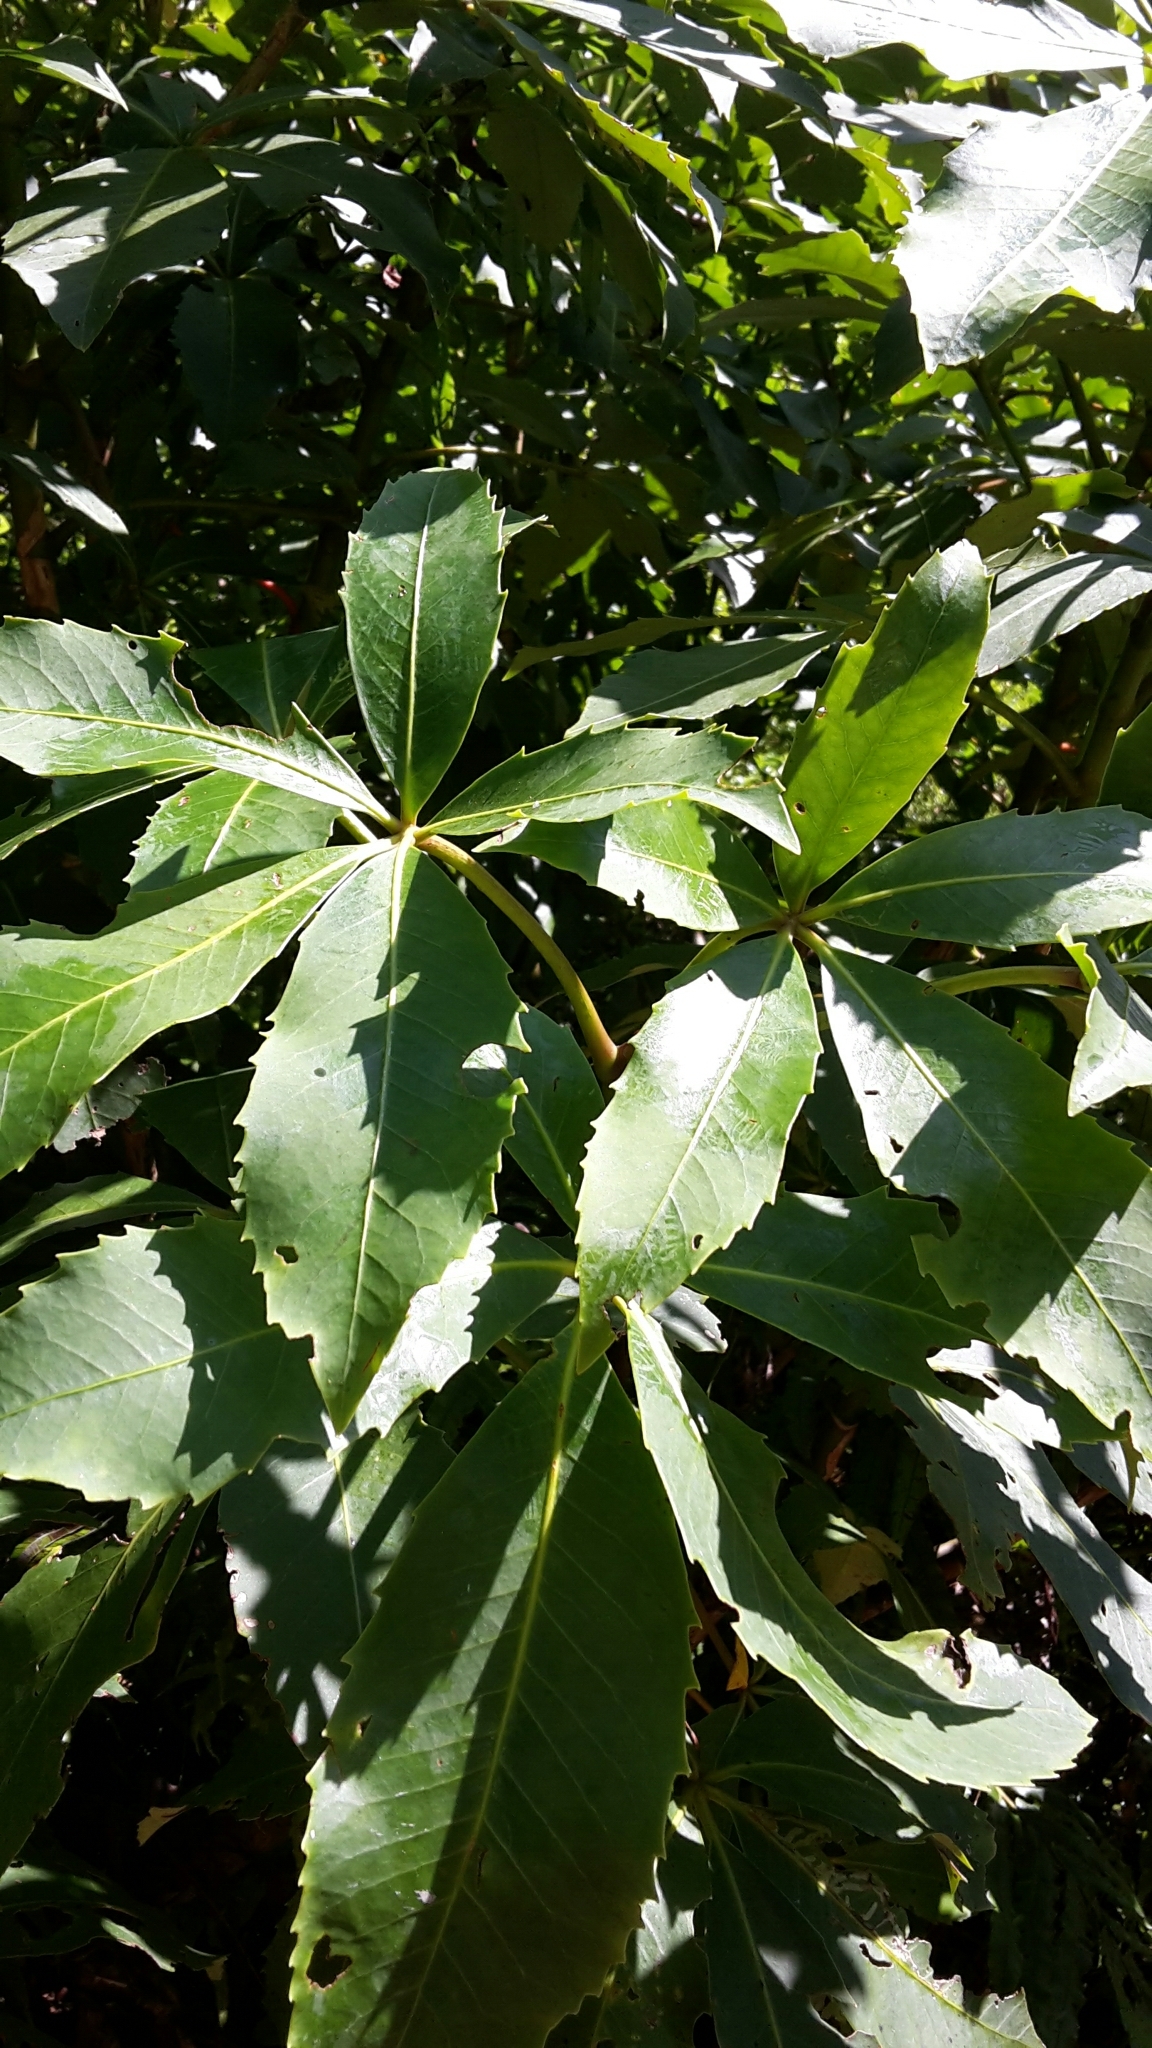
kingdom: Plantae
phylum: Tracheophyta
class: Magnoliopsida
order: Apiales
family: Araliaceae
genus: Neopanax
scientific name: Neopanax colensoi
